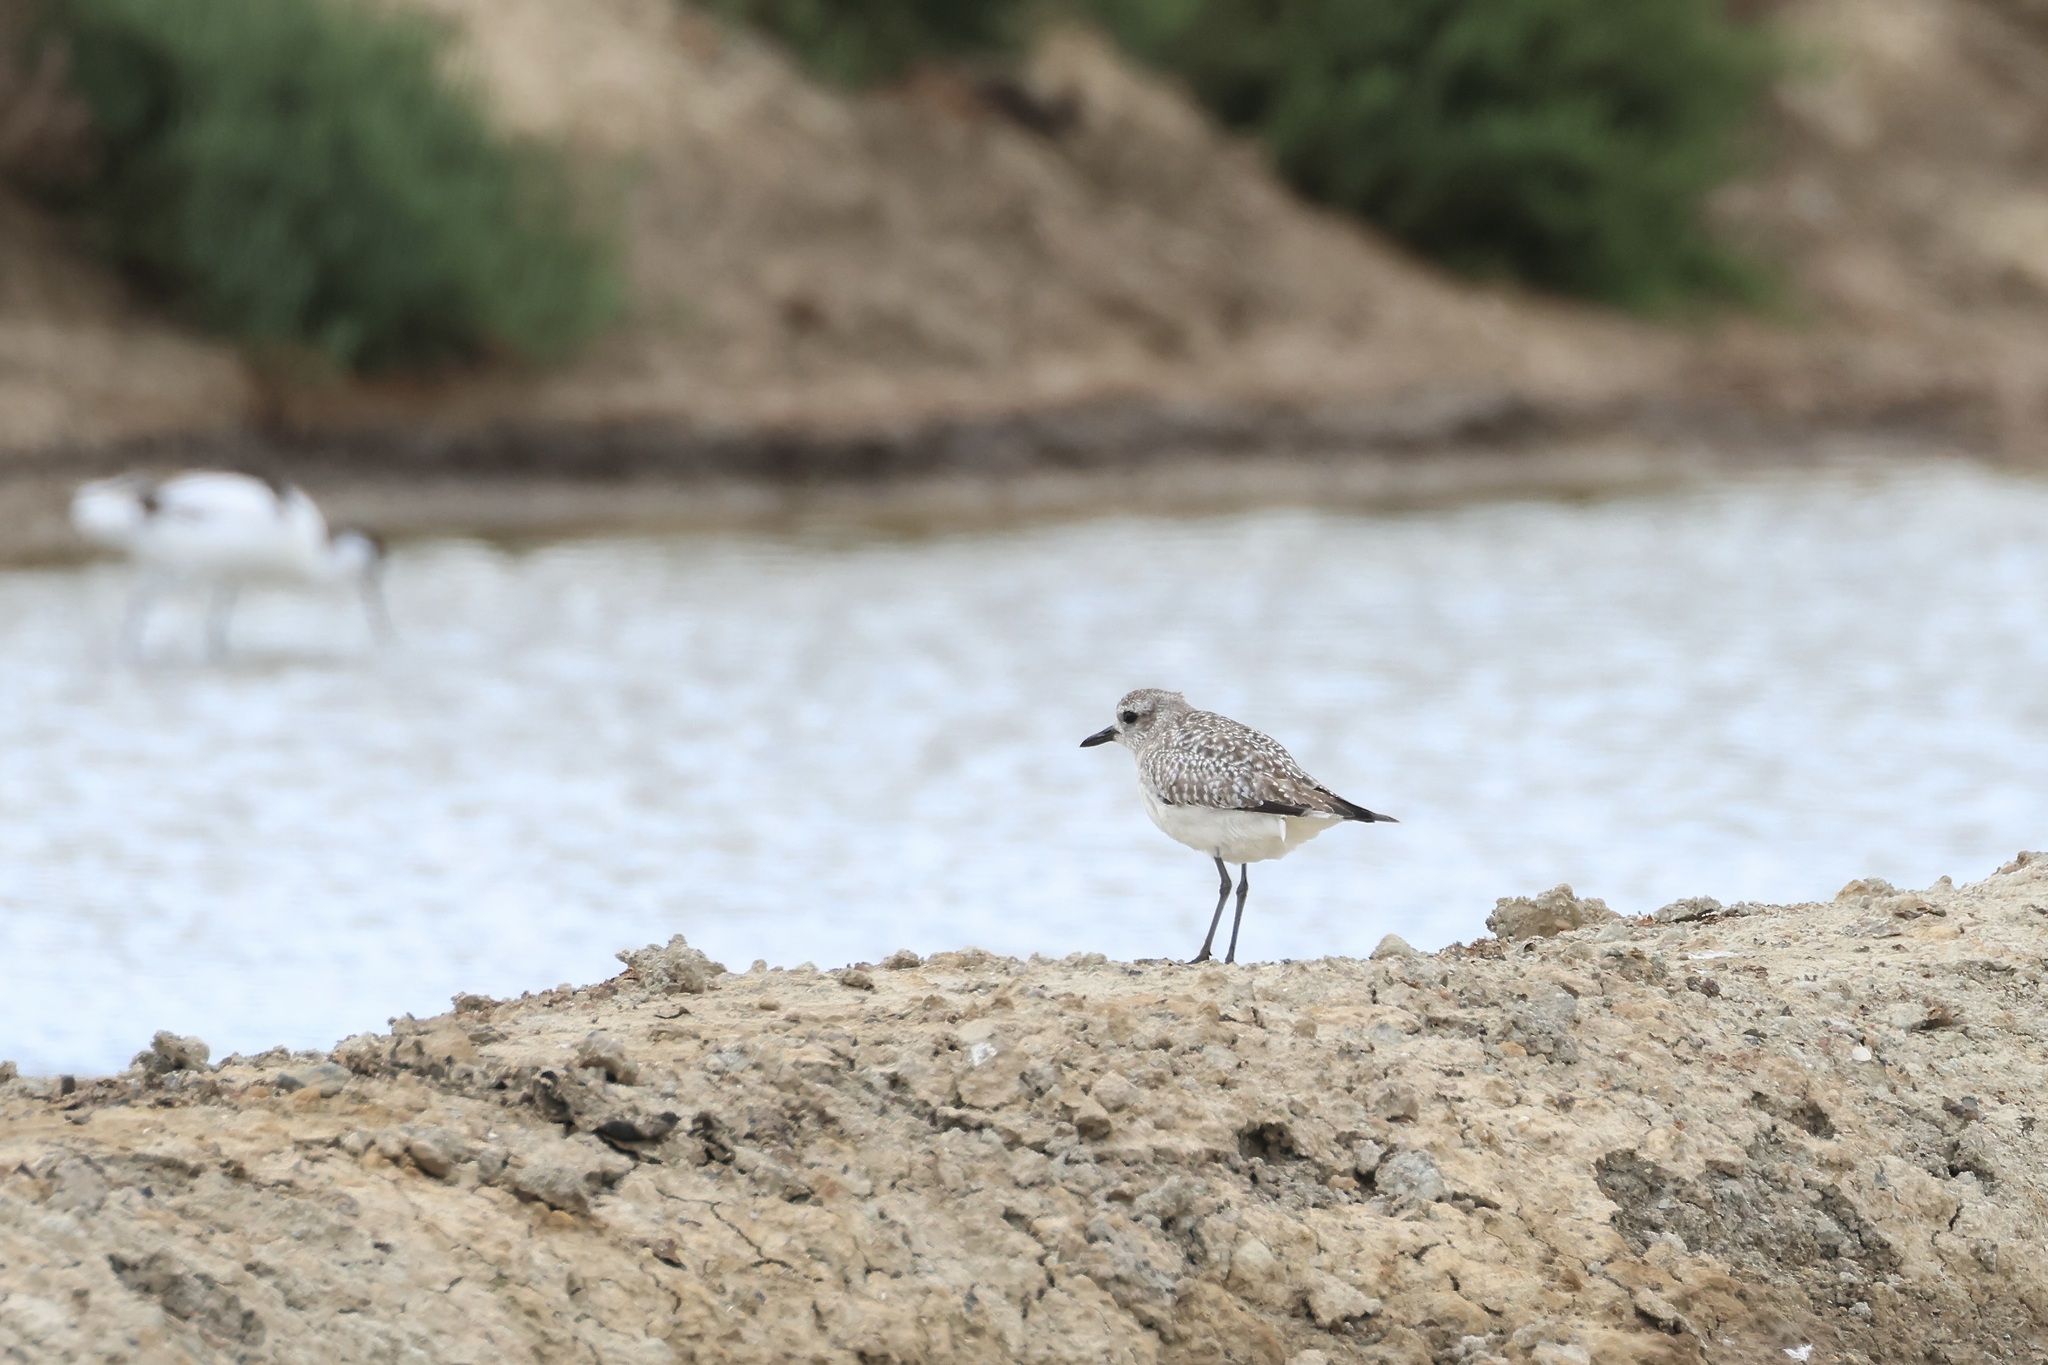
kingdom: Animalia
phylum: Chordata
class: Aves
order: Charadriiformes
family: Charadriidae
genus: Pluvialis
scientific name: Pluvialis squatarola
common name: Grey plover
